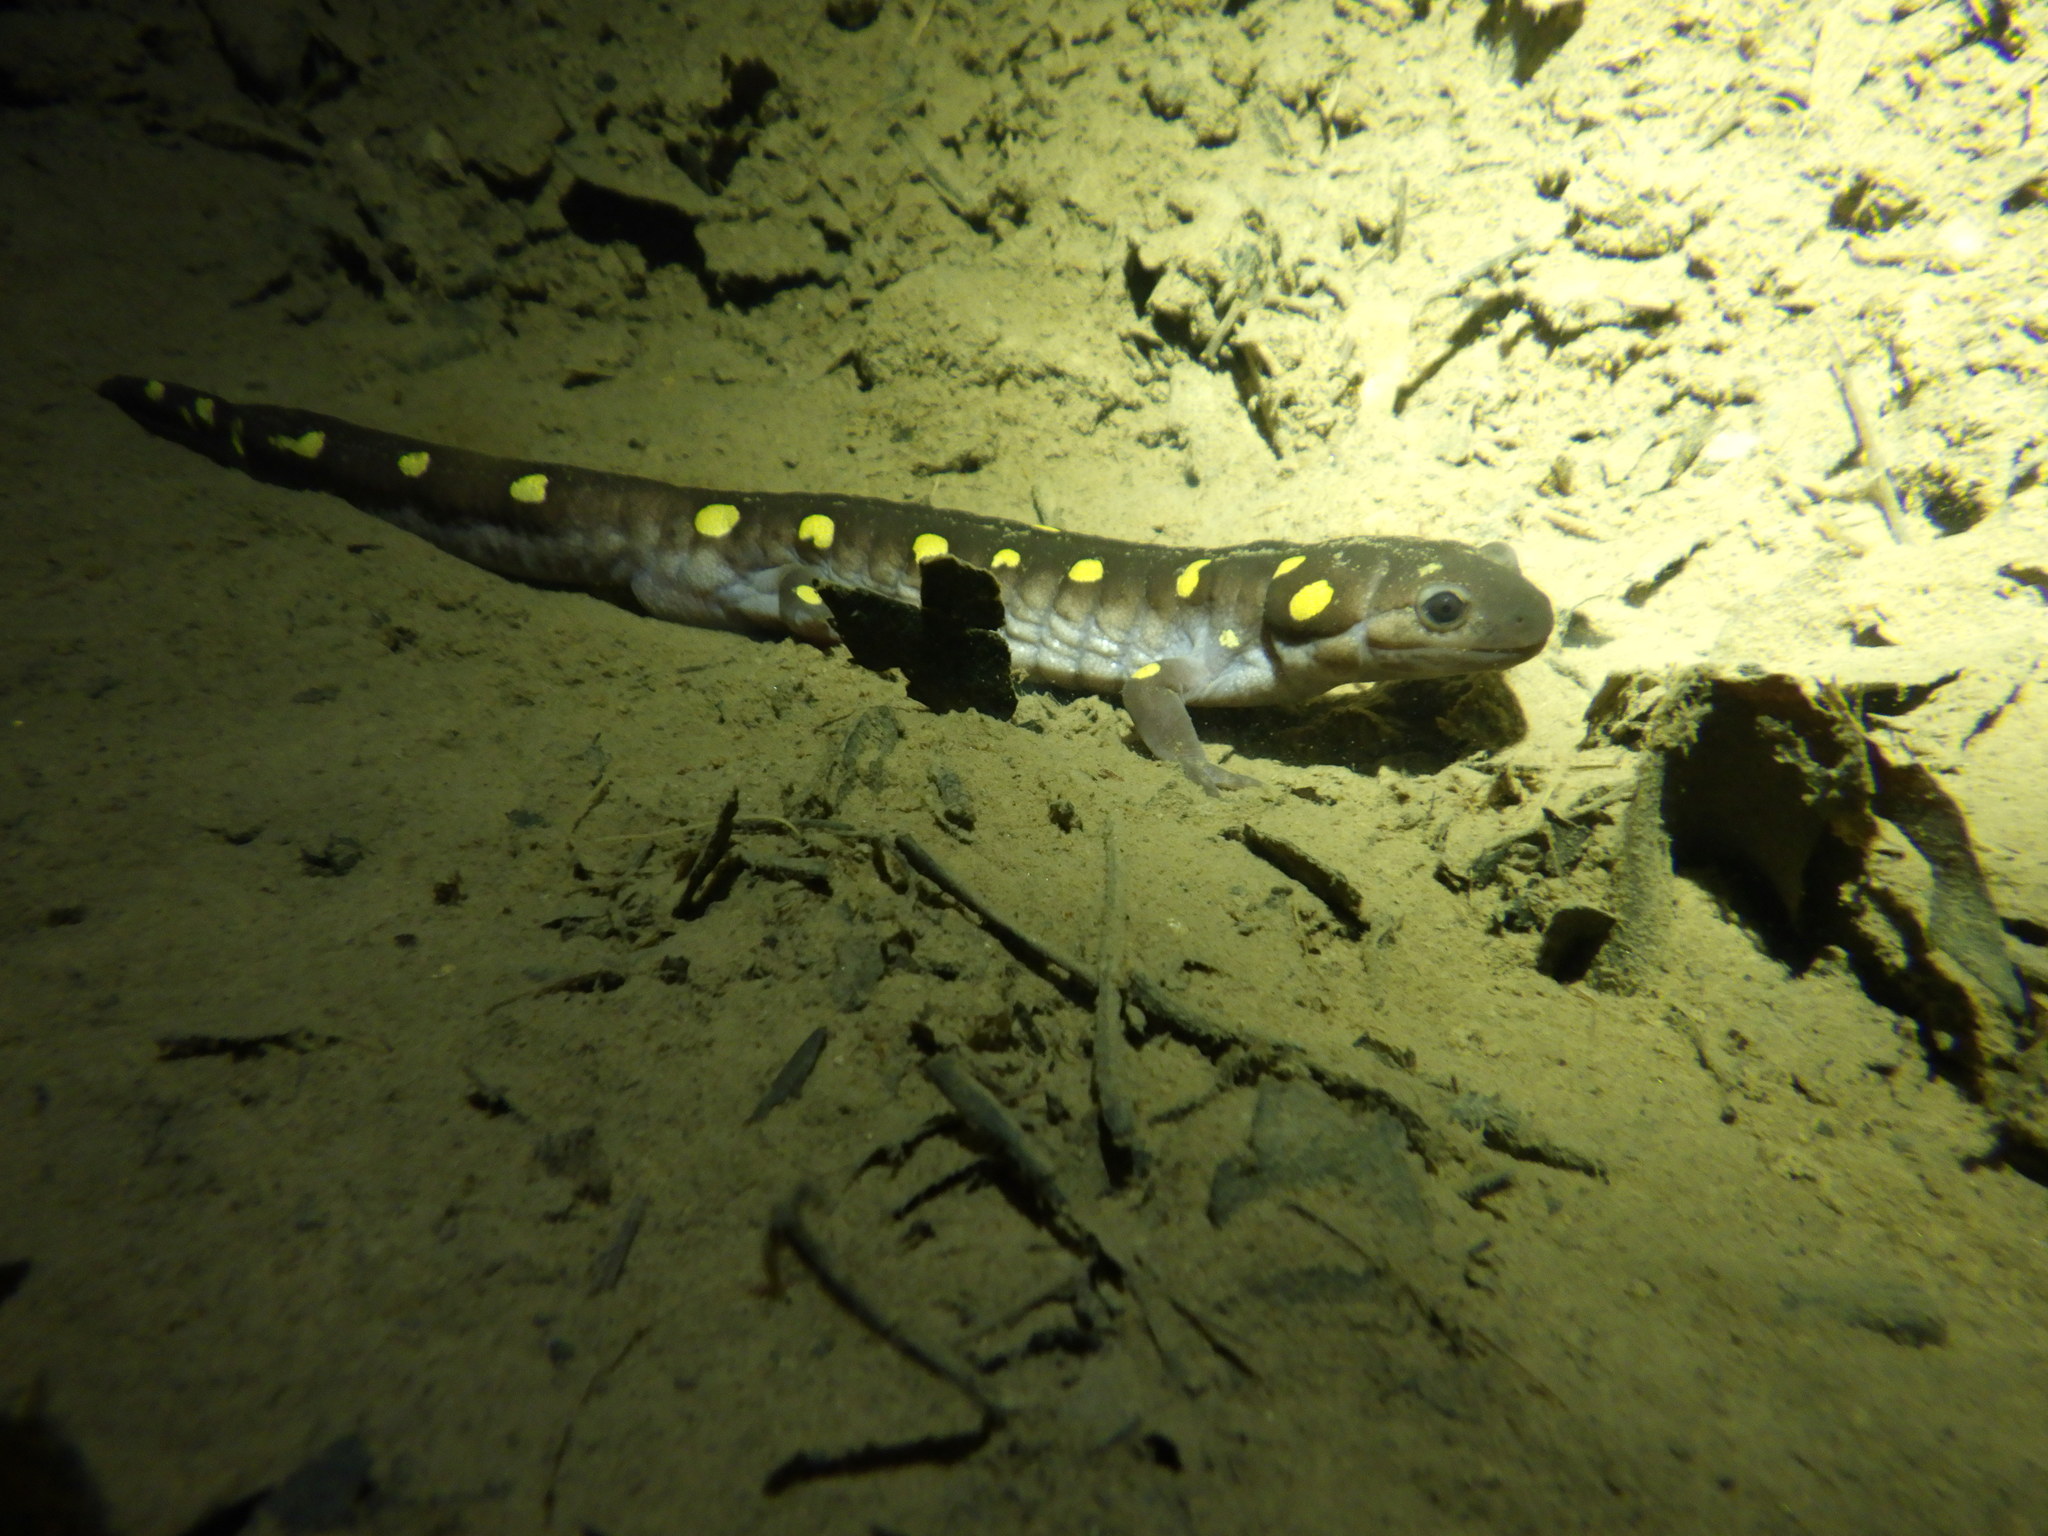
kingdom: Animalia
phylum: Chordata
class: Amphibia
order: Caudata
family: Ambystomatidae
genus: Ambystoma
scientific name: Ambystoma maculatum
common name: Spotted salamander
